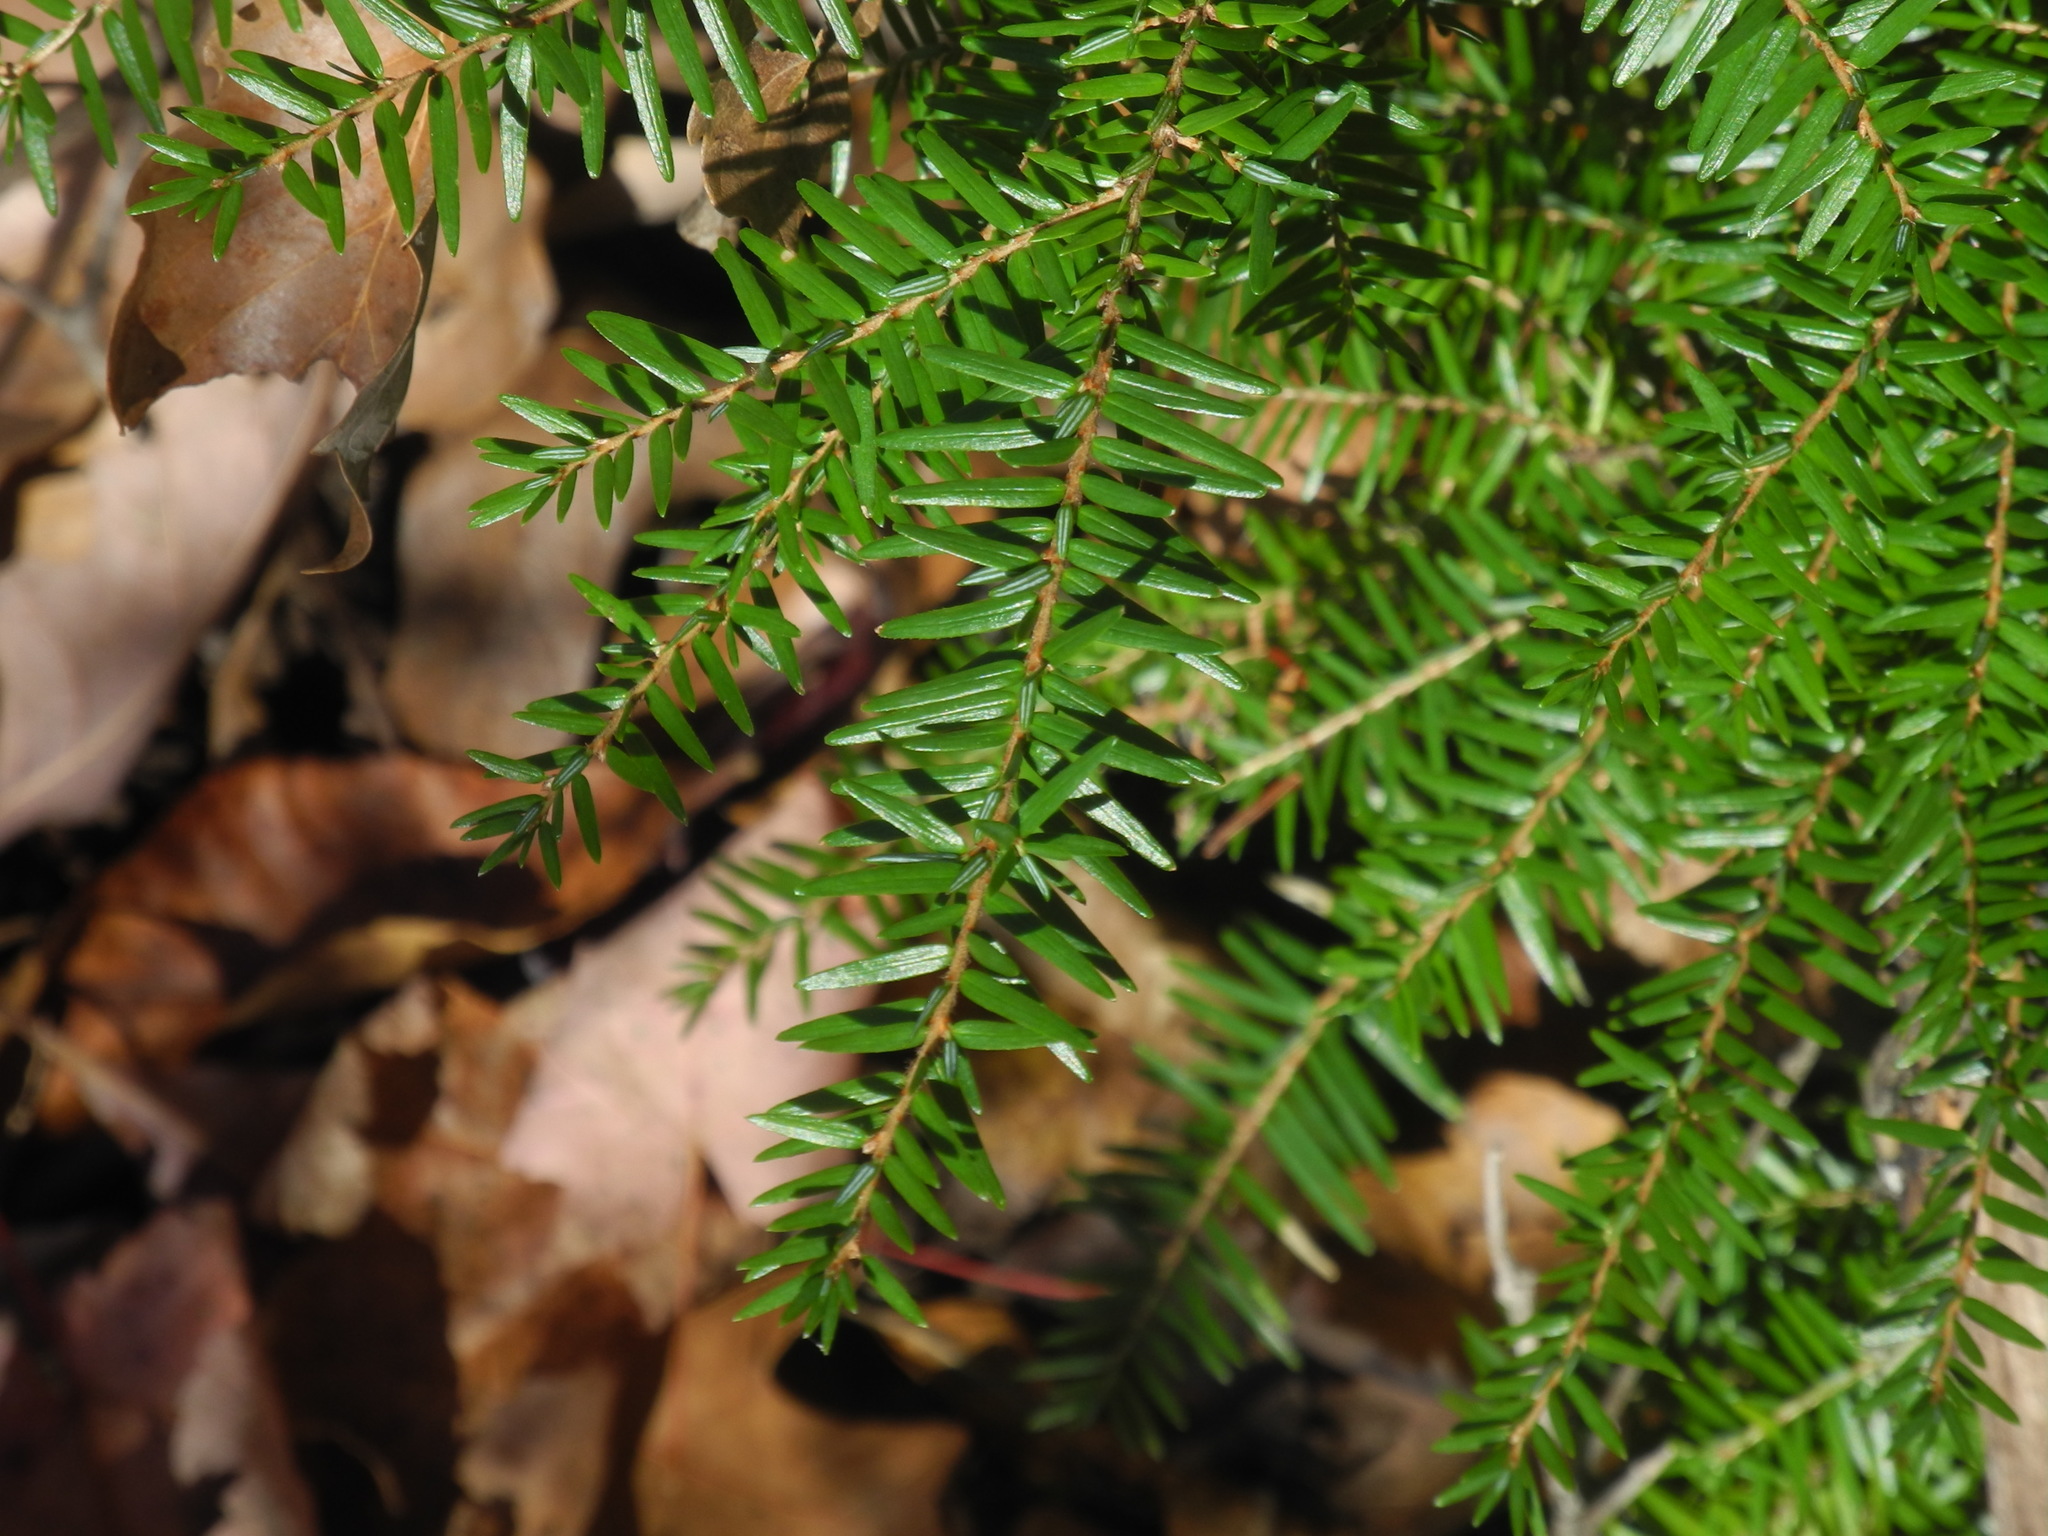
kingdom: Plantae
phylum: Tracheophyta
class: Pinopsida
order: Pinales
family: Pinaceae
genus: Tsuga
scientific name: Tsuga canadensis
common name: Eastern hemlock
